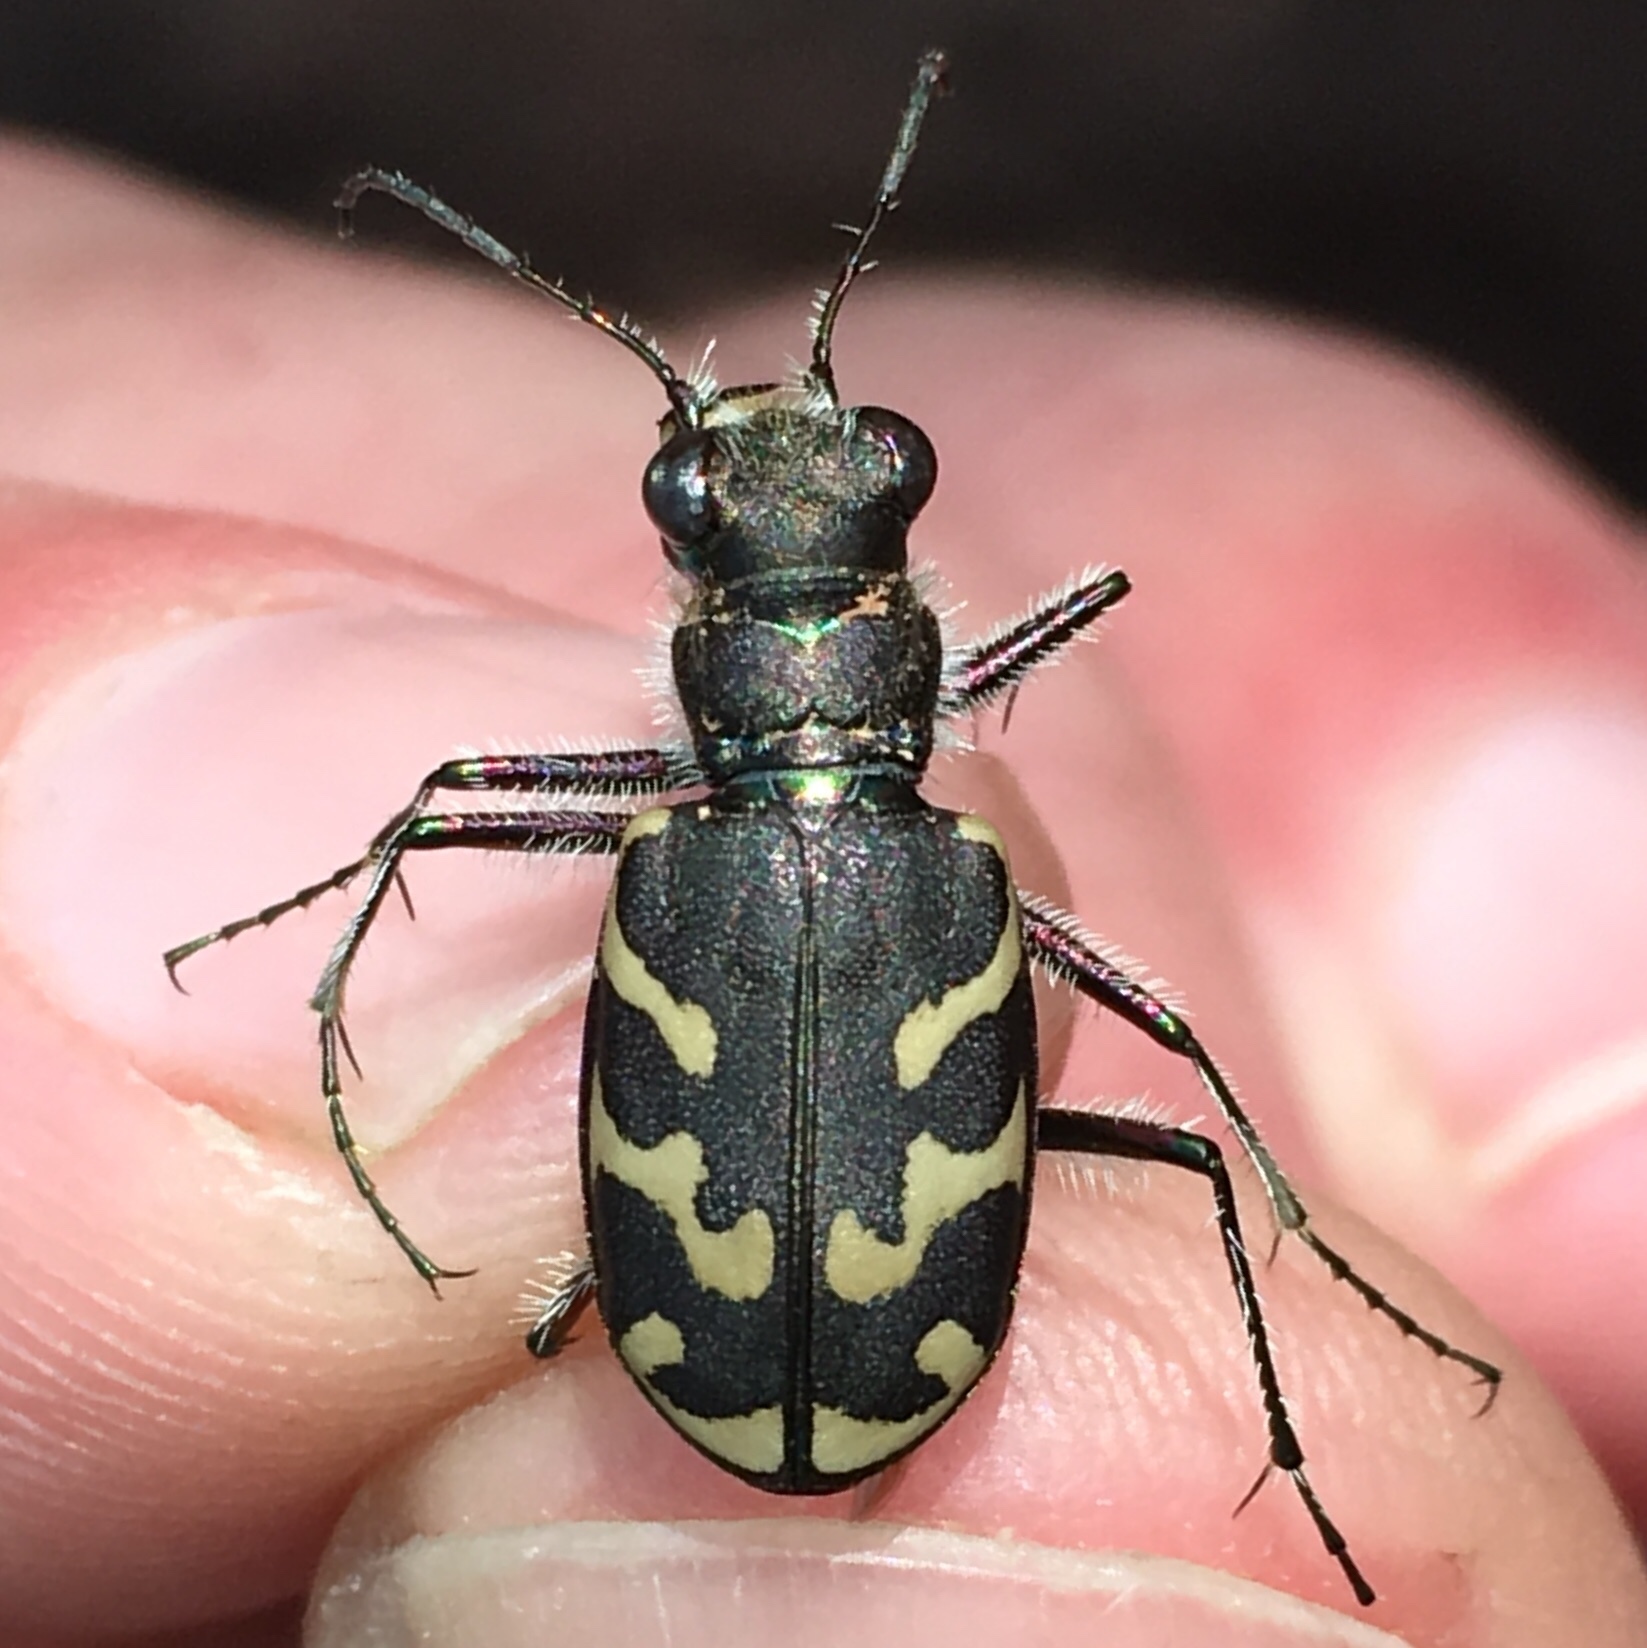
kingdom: Animalia
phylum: Arthropoda
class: Insecta
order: Coleoptera
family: Carabidae
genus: Cicindela
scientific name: Cicindela tranquebarica
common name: Oblique-lined tiger beetle
